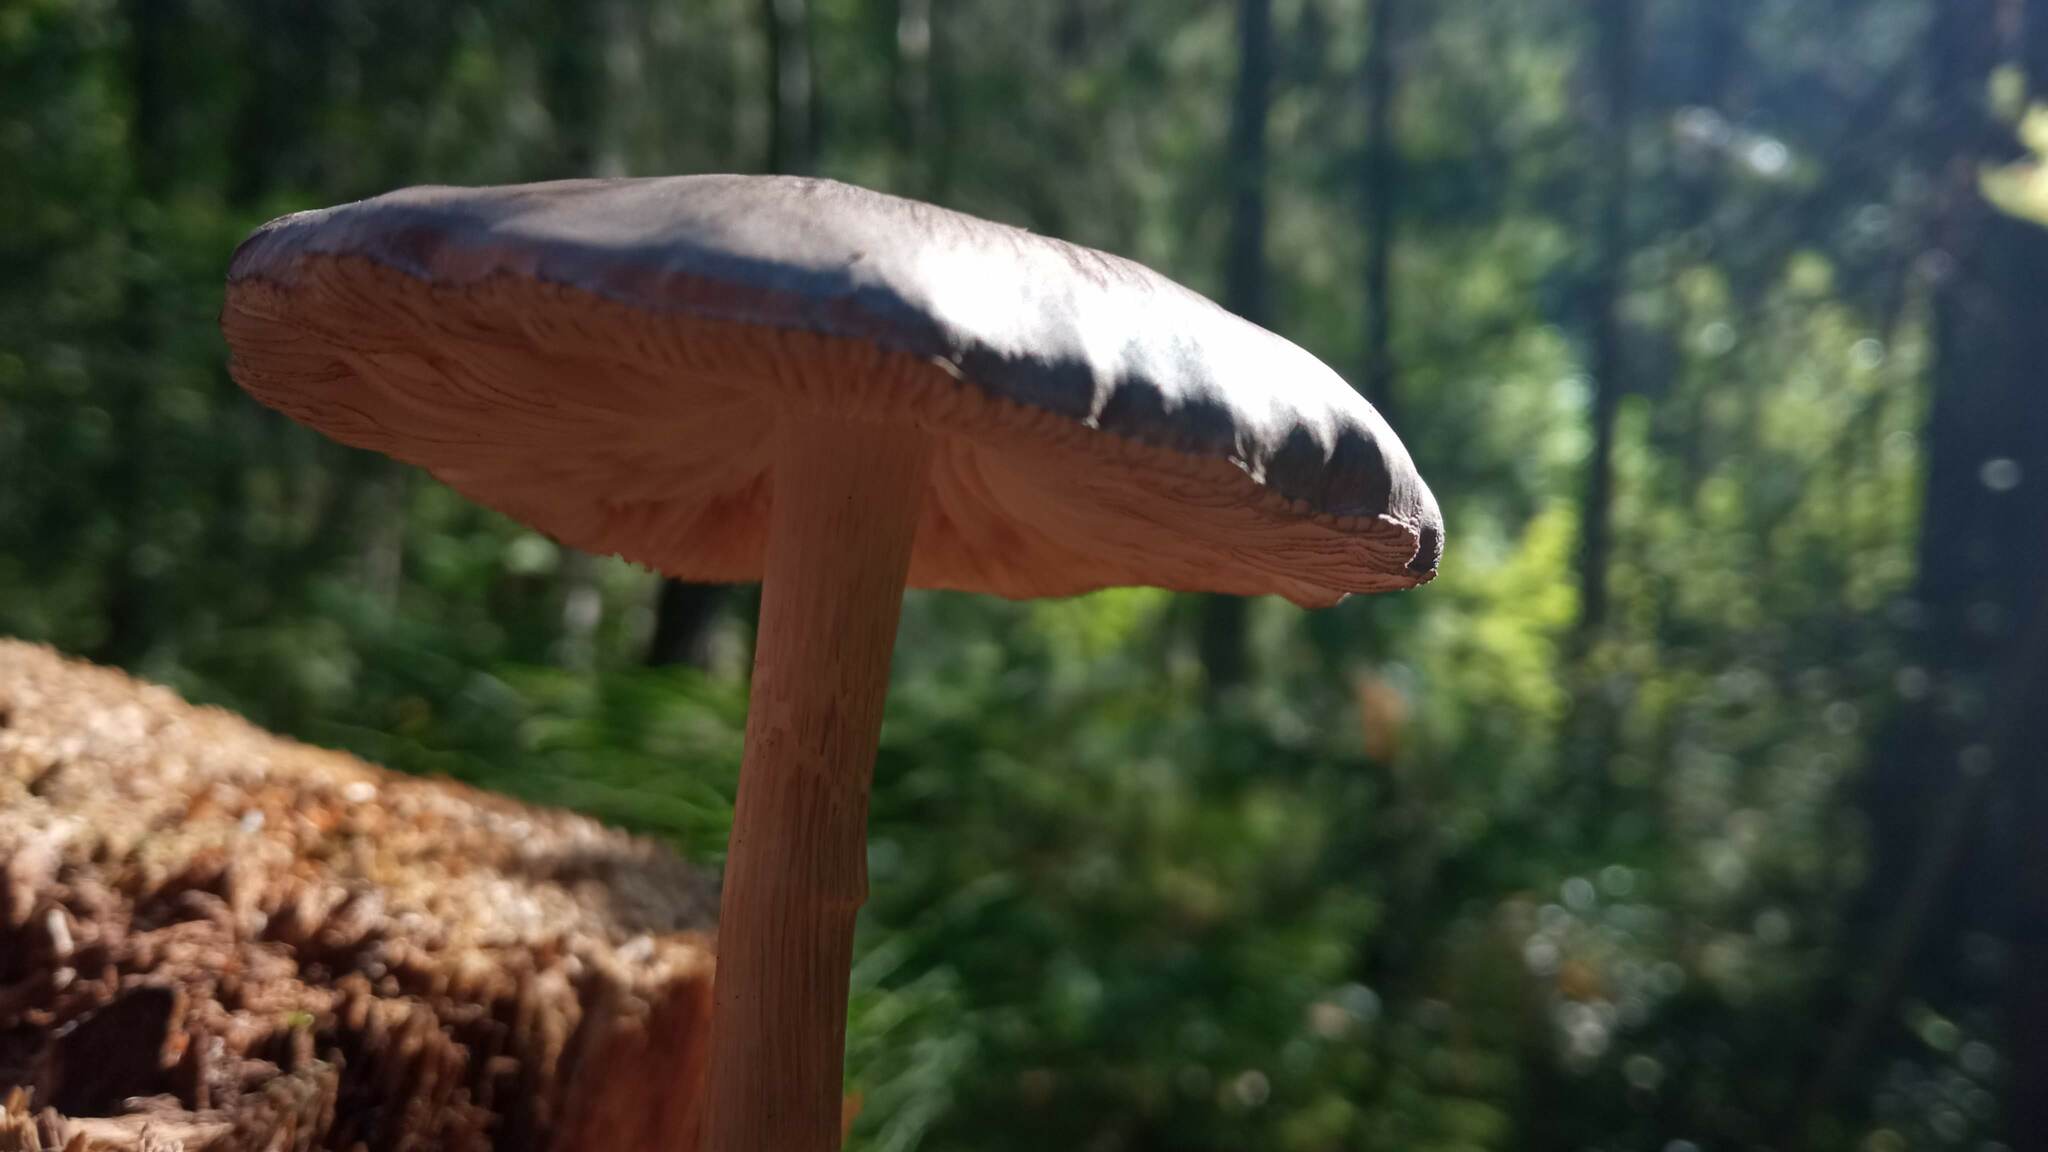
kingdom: Fungi
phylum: Basidiomycota
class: Agaricomycetes
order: Agaricales
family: Pluteaceae
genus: Pluteus
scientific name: Pluteus atromarginatus
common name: Blackedged shield
